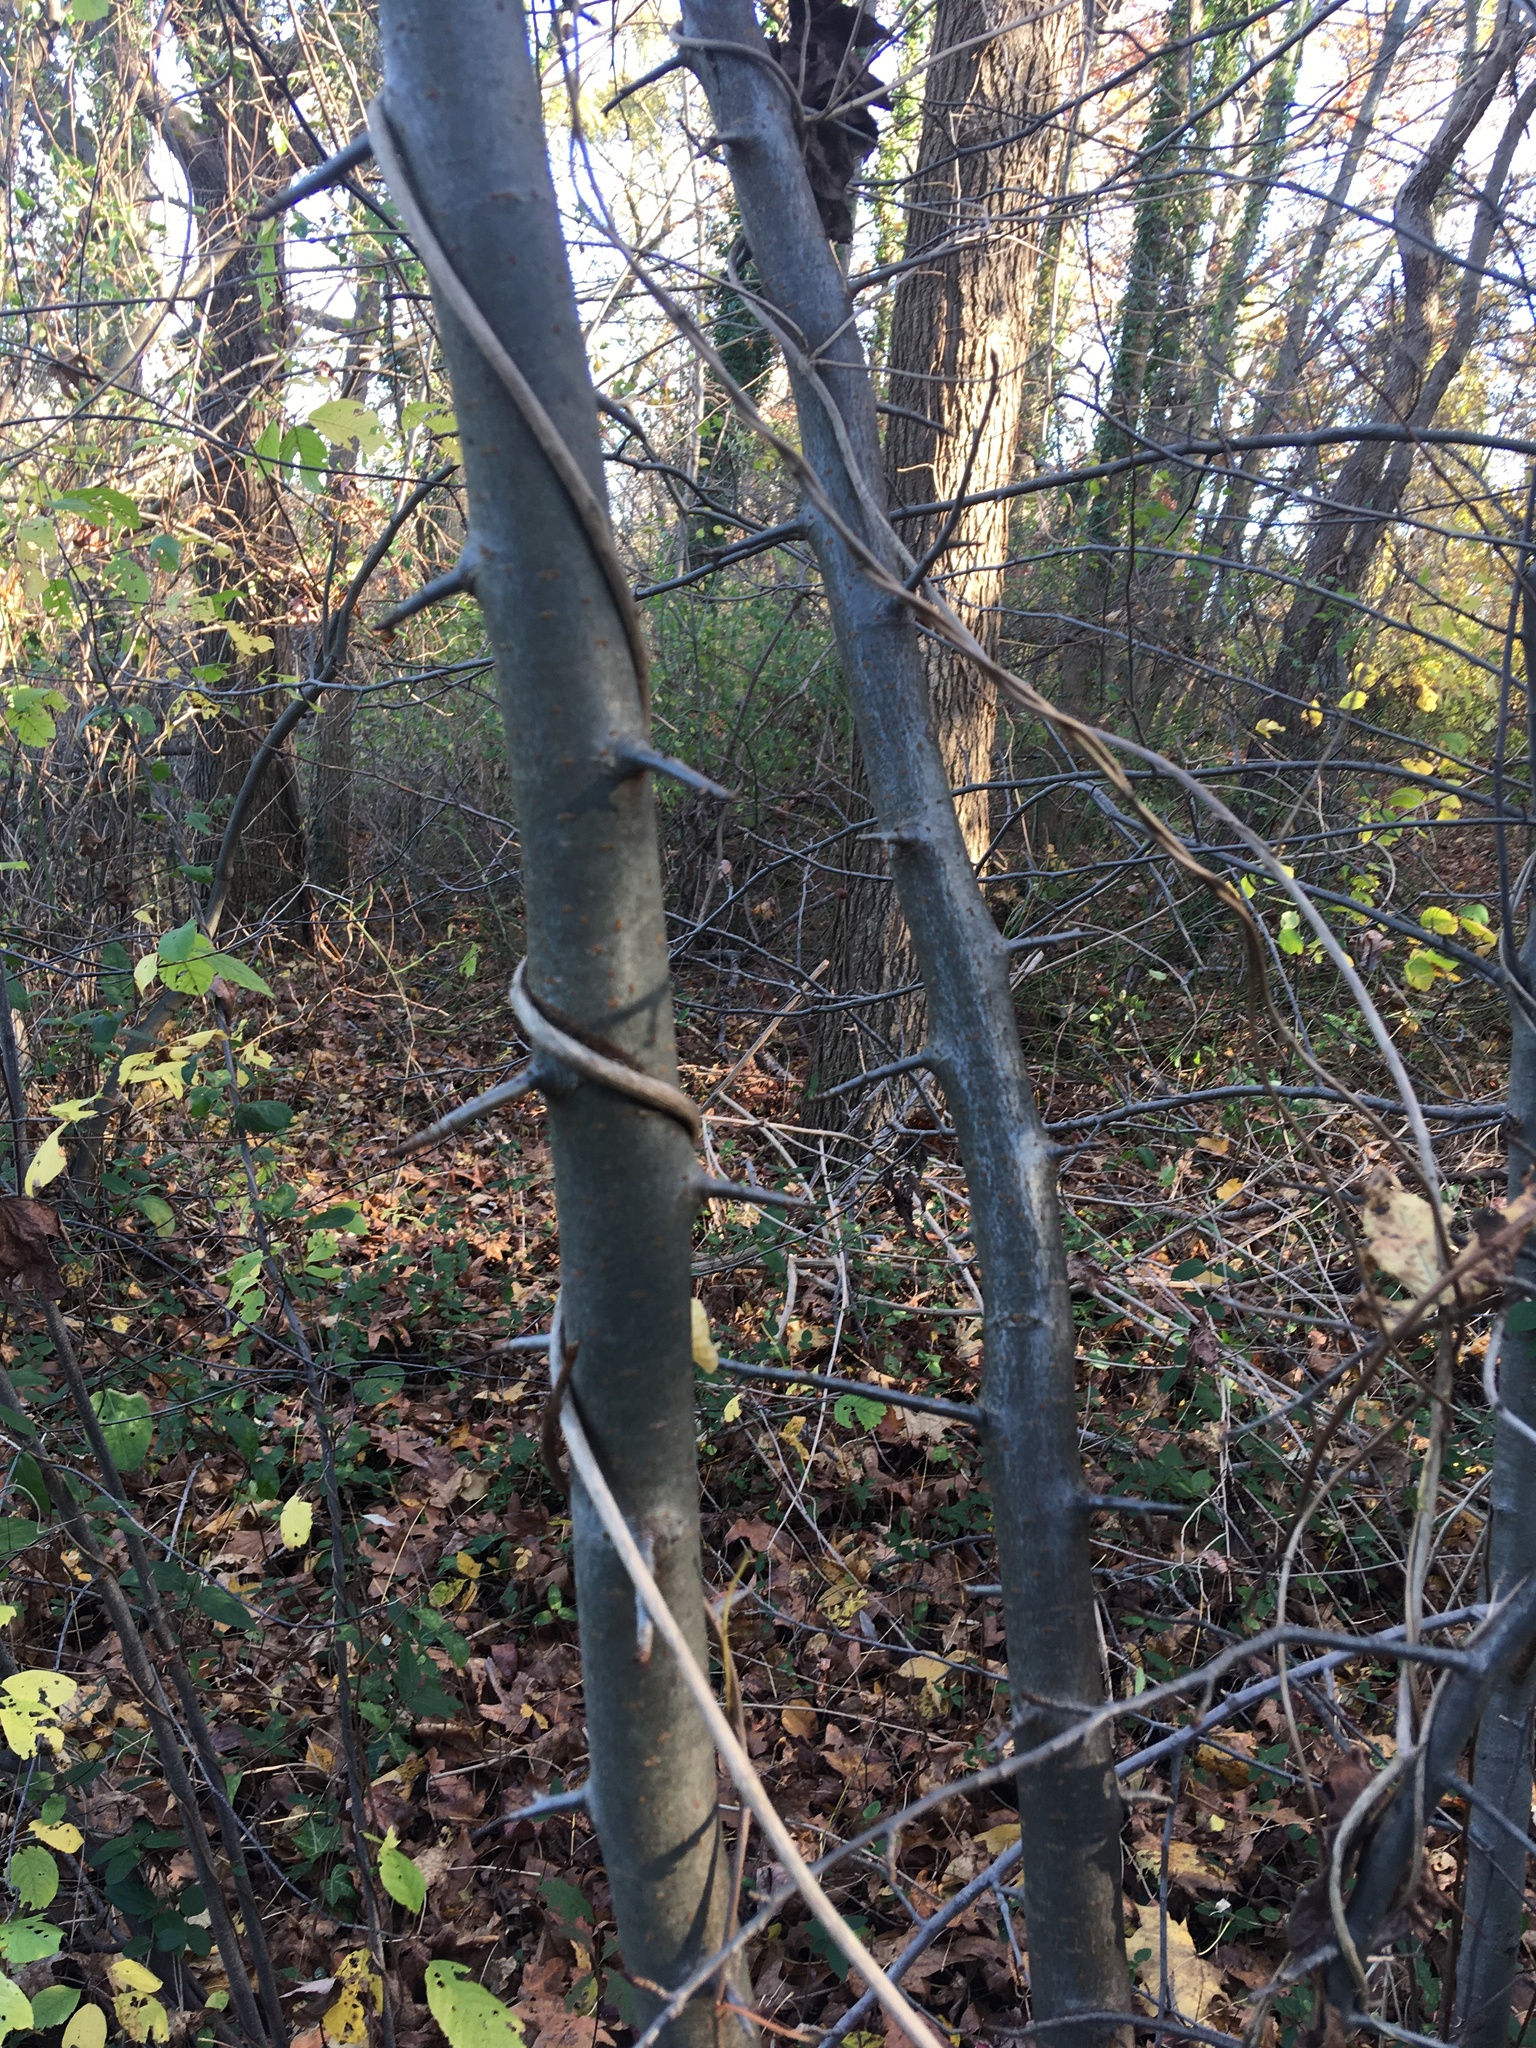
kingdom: Plantae
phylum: Tracheophyta
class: Magnoliopsida
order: Rosales
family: Rosaceae
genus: Malus
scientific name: Malus hupehensis
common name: Chinese crab apple
